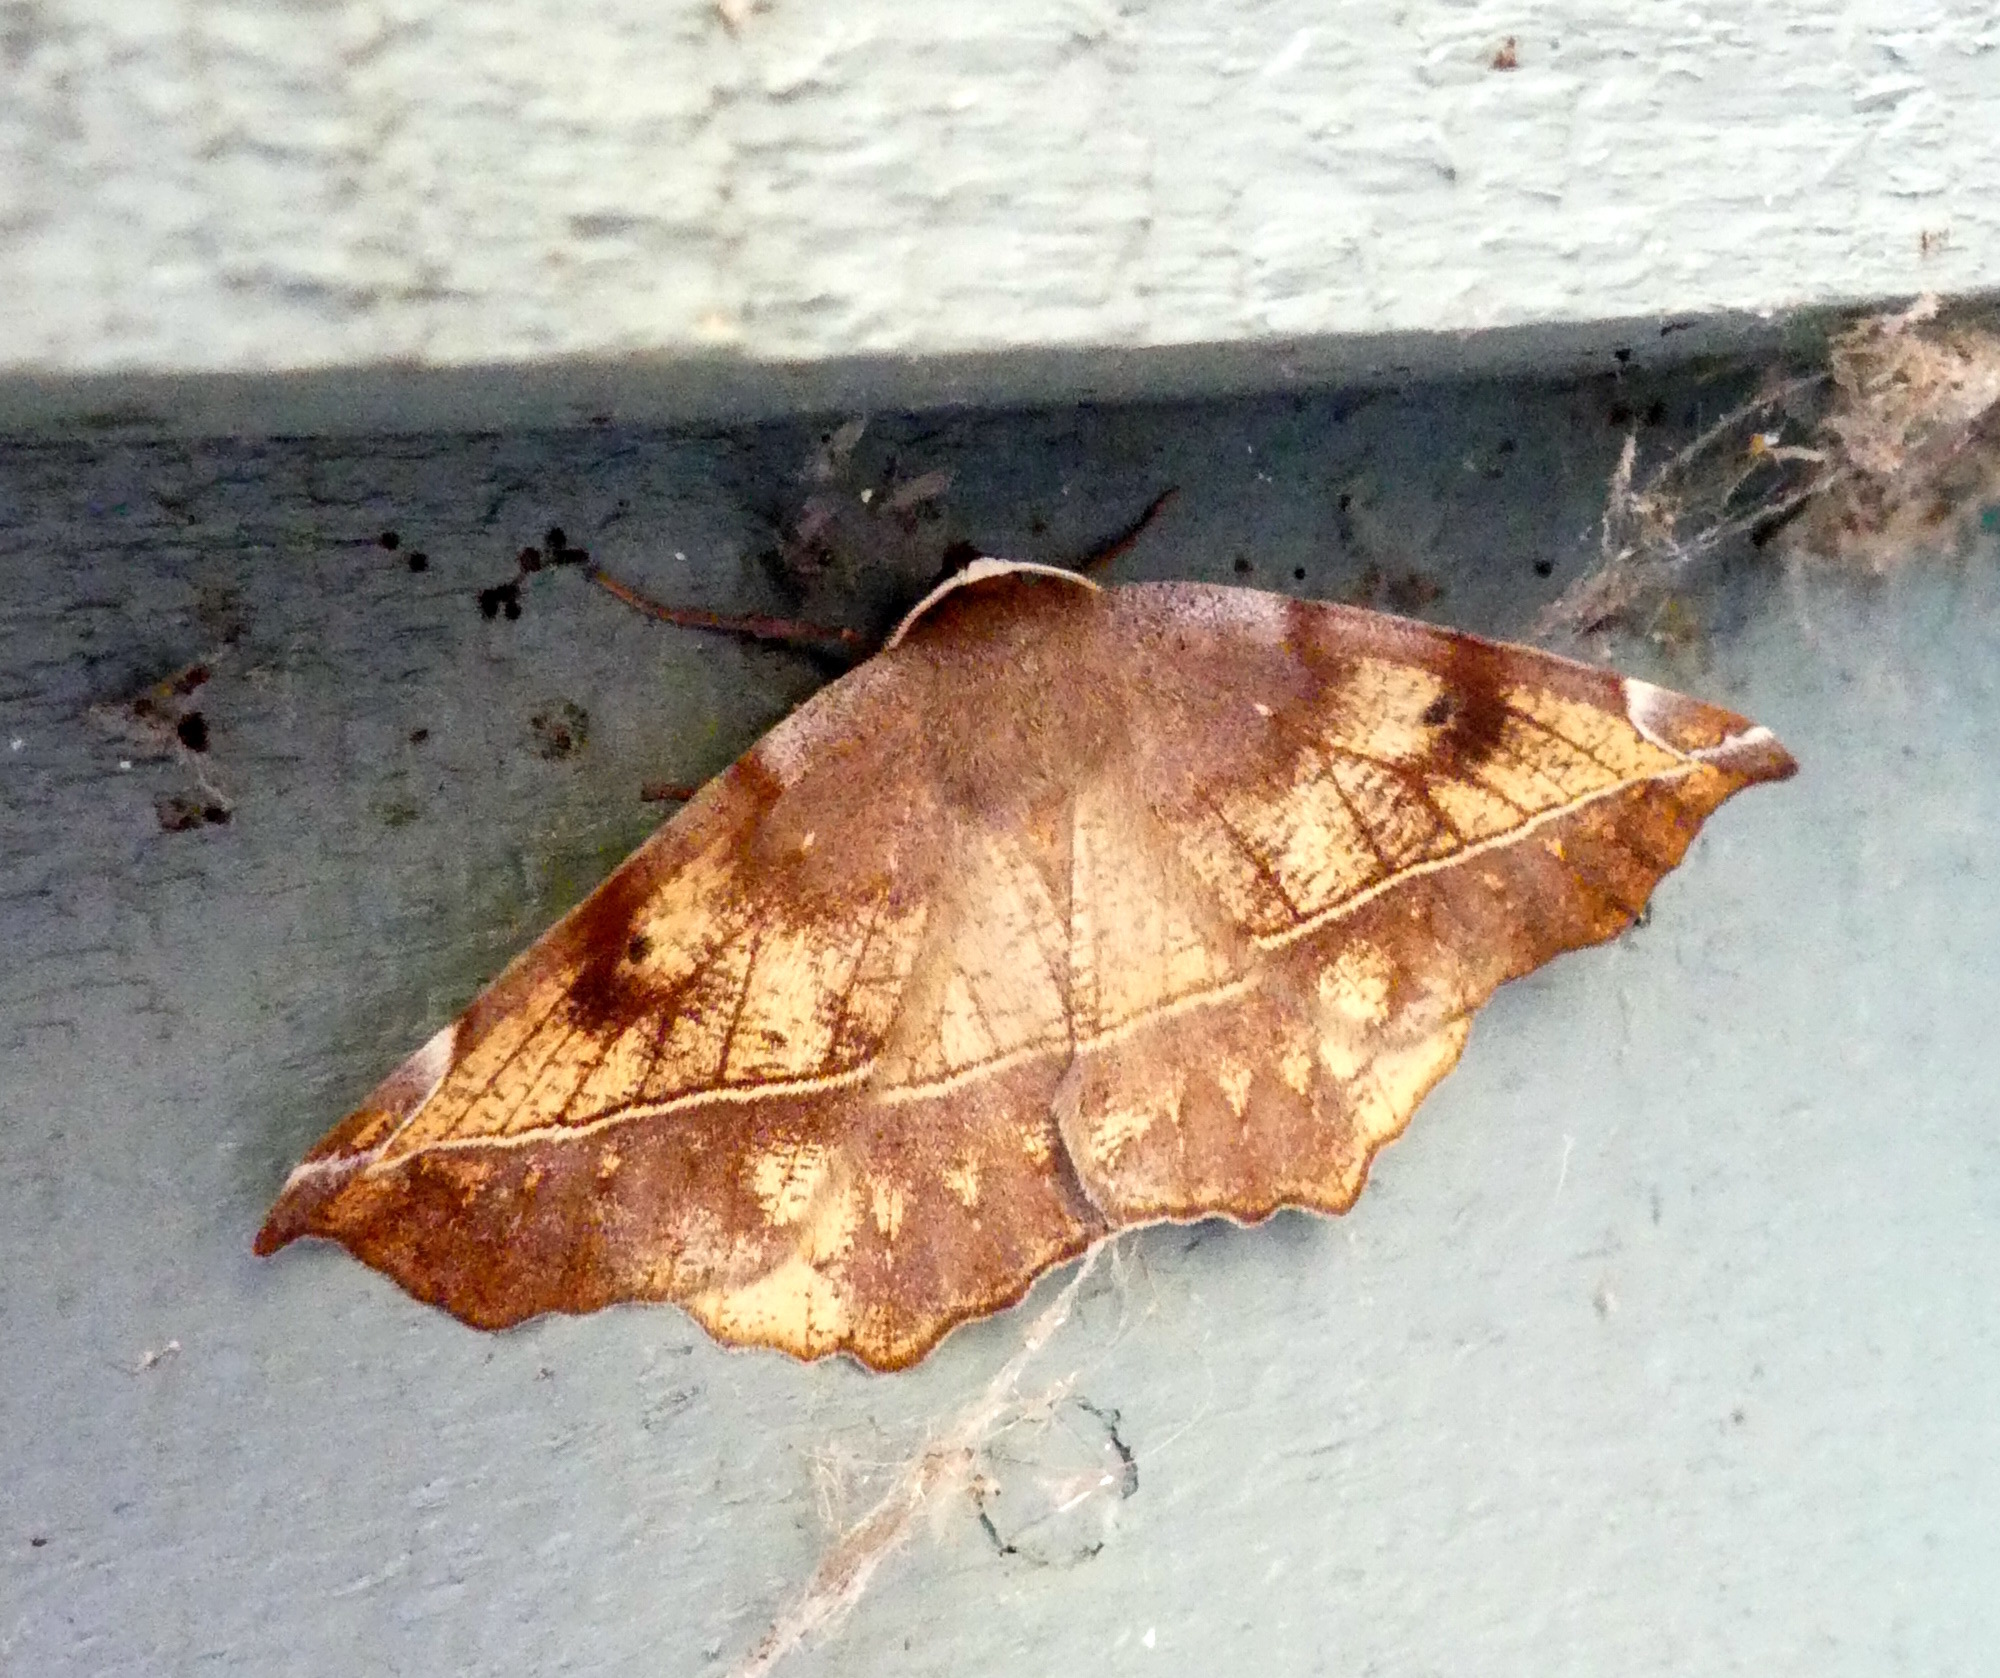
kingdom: Animalia
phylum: Arthropoda
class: Insecta
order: Lepidoptera
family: Geometridae
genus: Eutrapela
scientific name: Eutrapela clemataria
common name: Curved-toothed geometer
